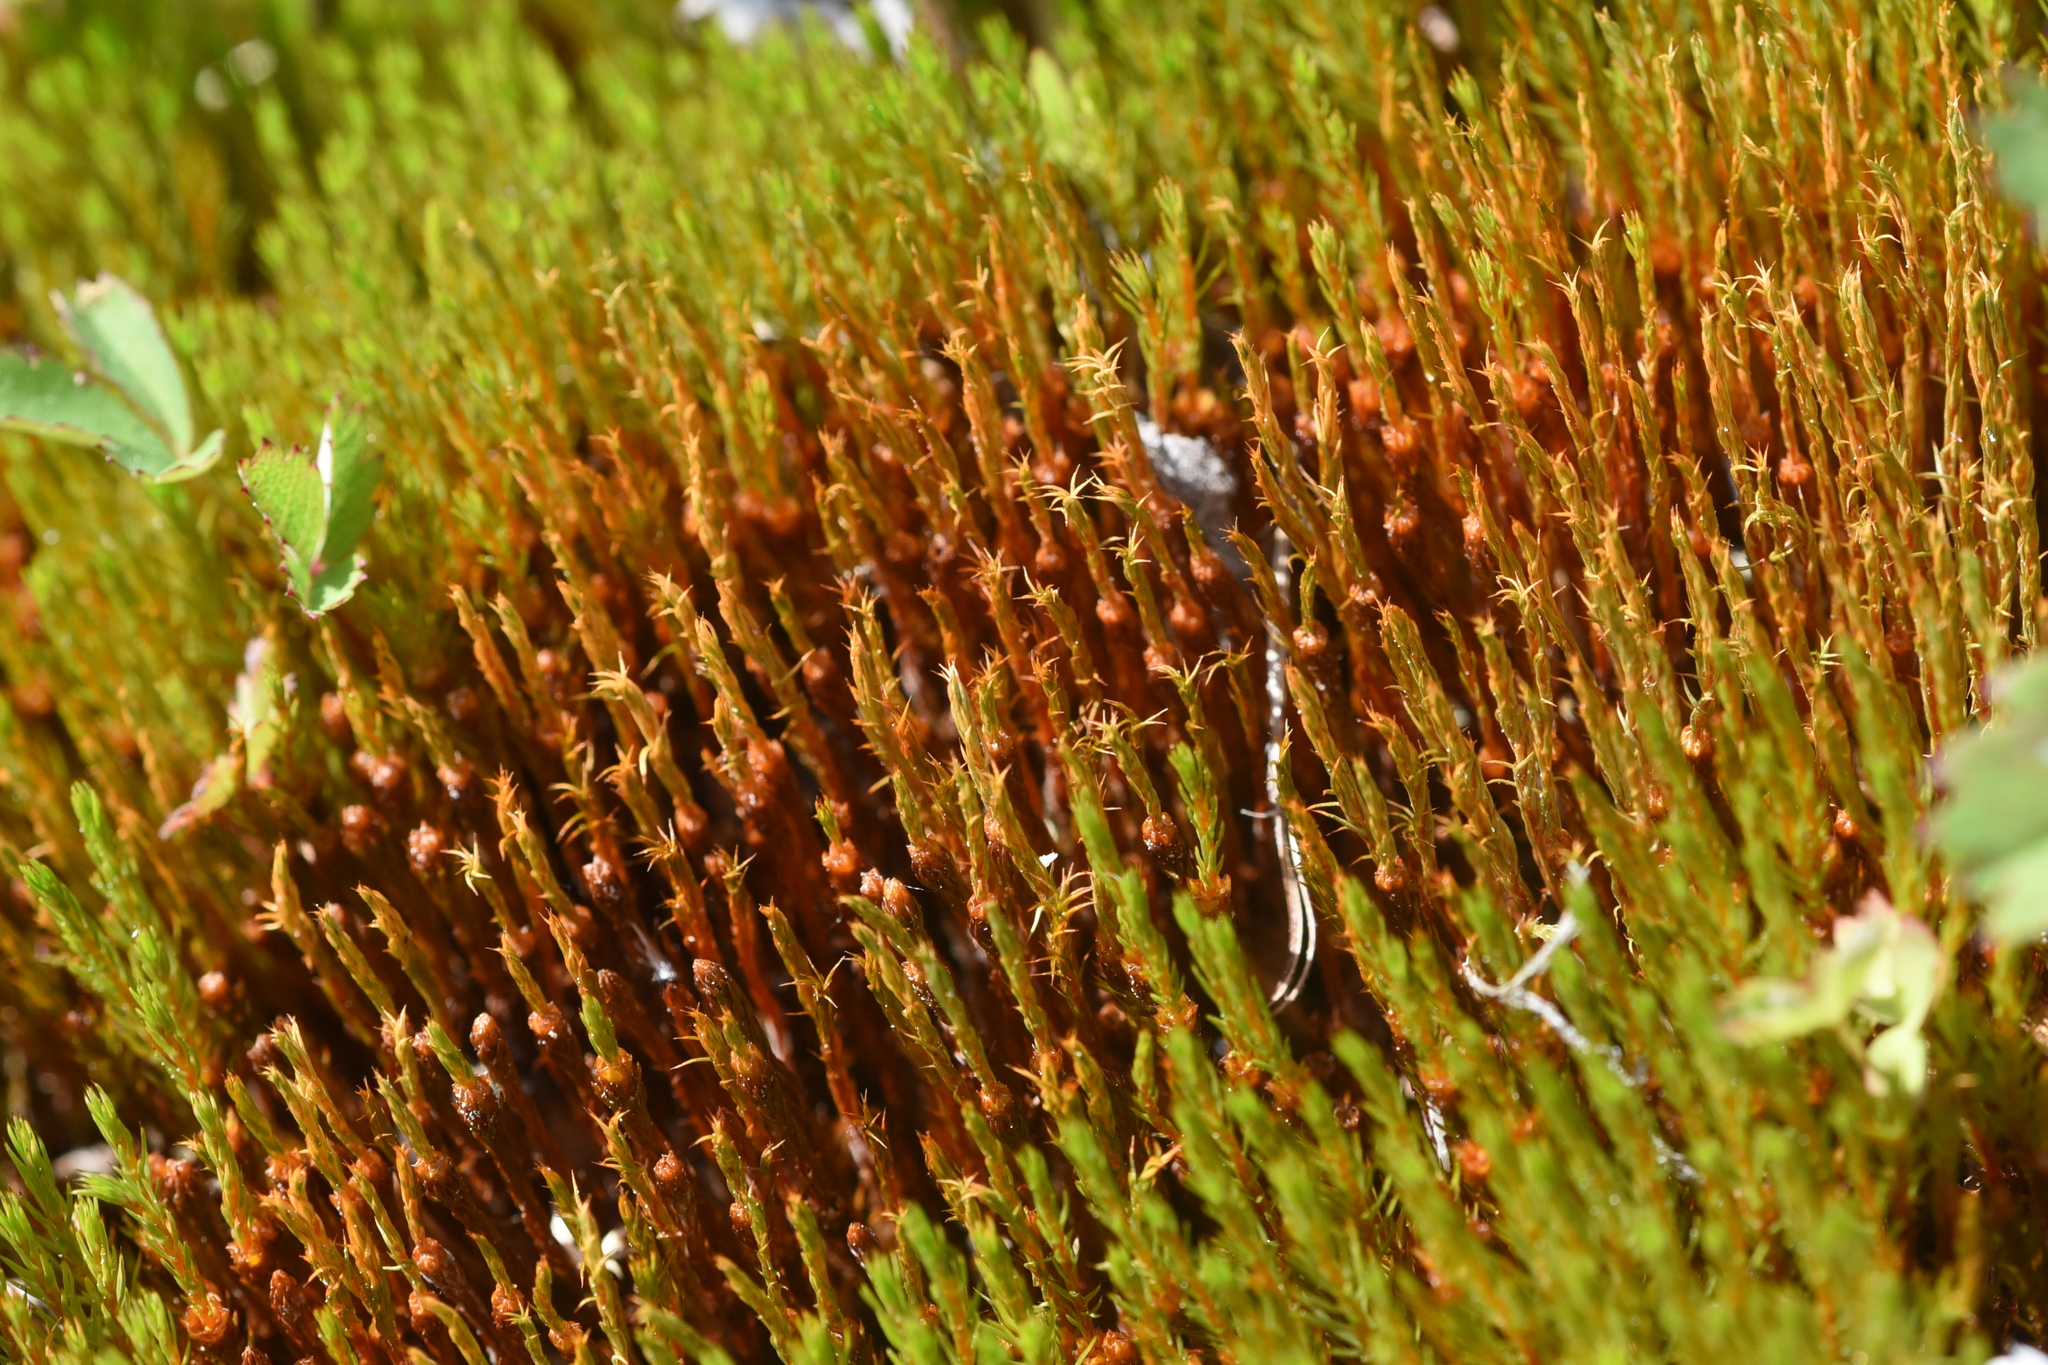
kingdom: Plantae
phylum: Bryophyta
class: Polytrichopsida
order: Polytrichales
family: Polytrichaceae
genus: Polytrichum
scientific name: Polytrichum strictum
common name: Bog haircap moss
